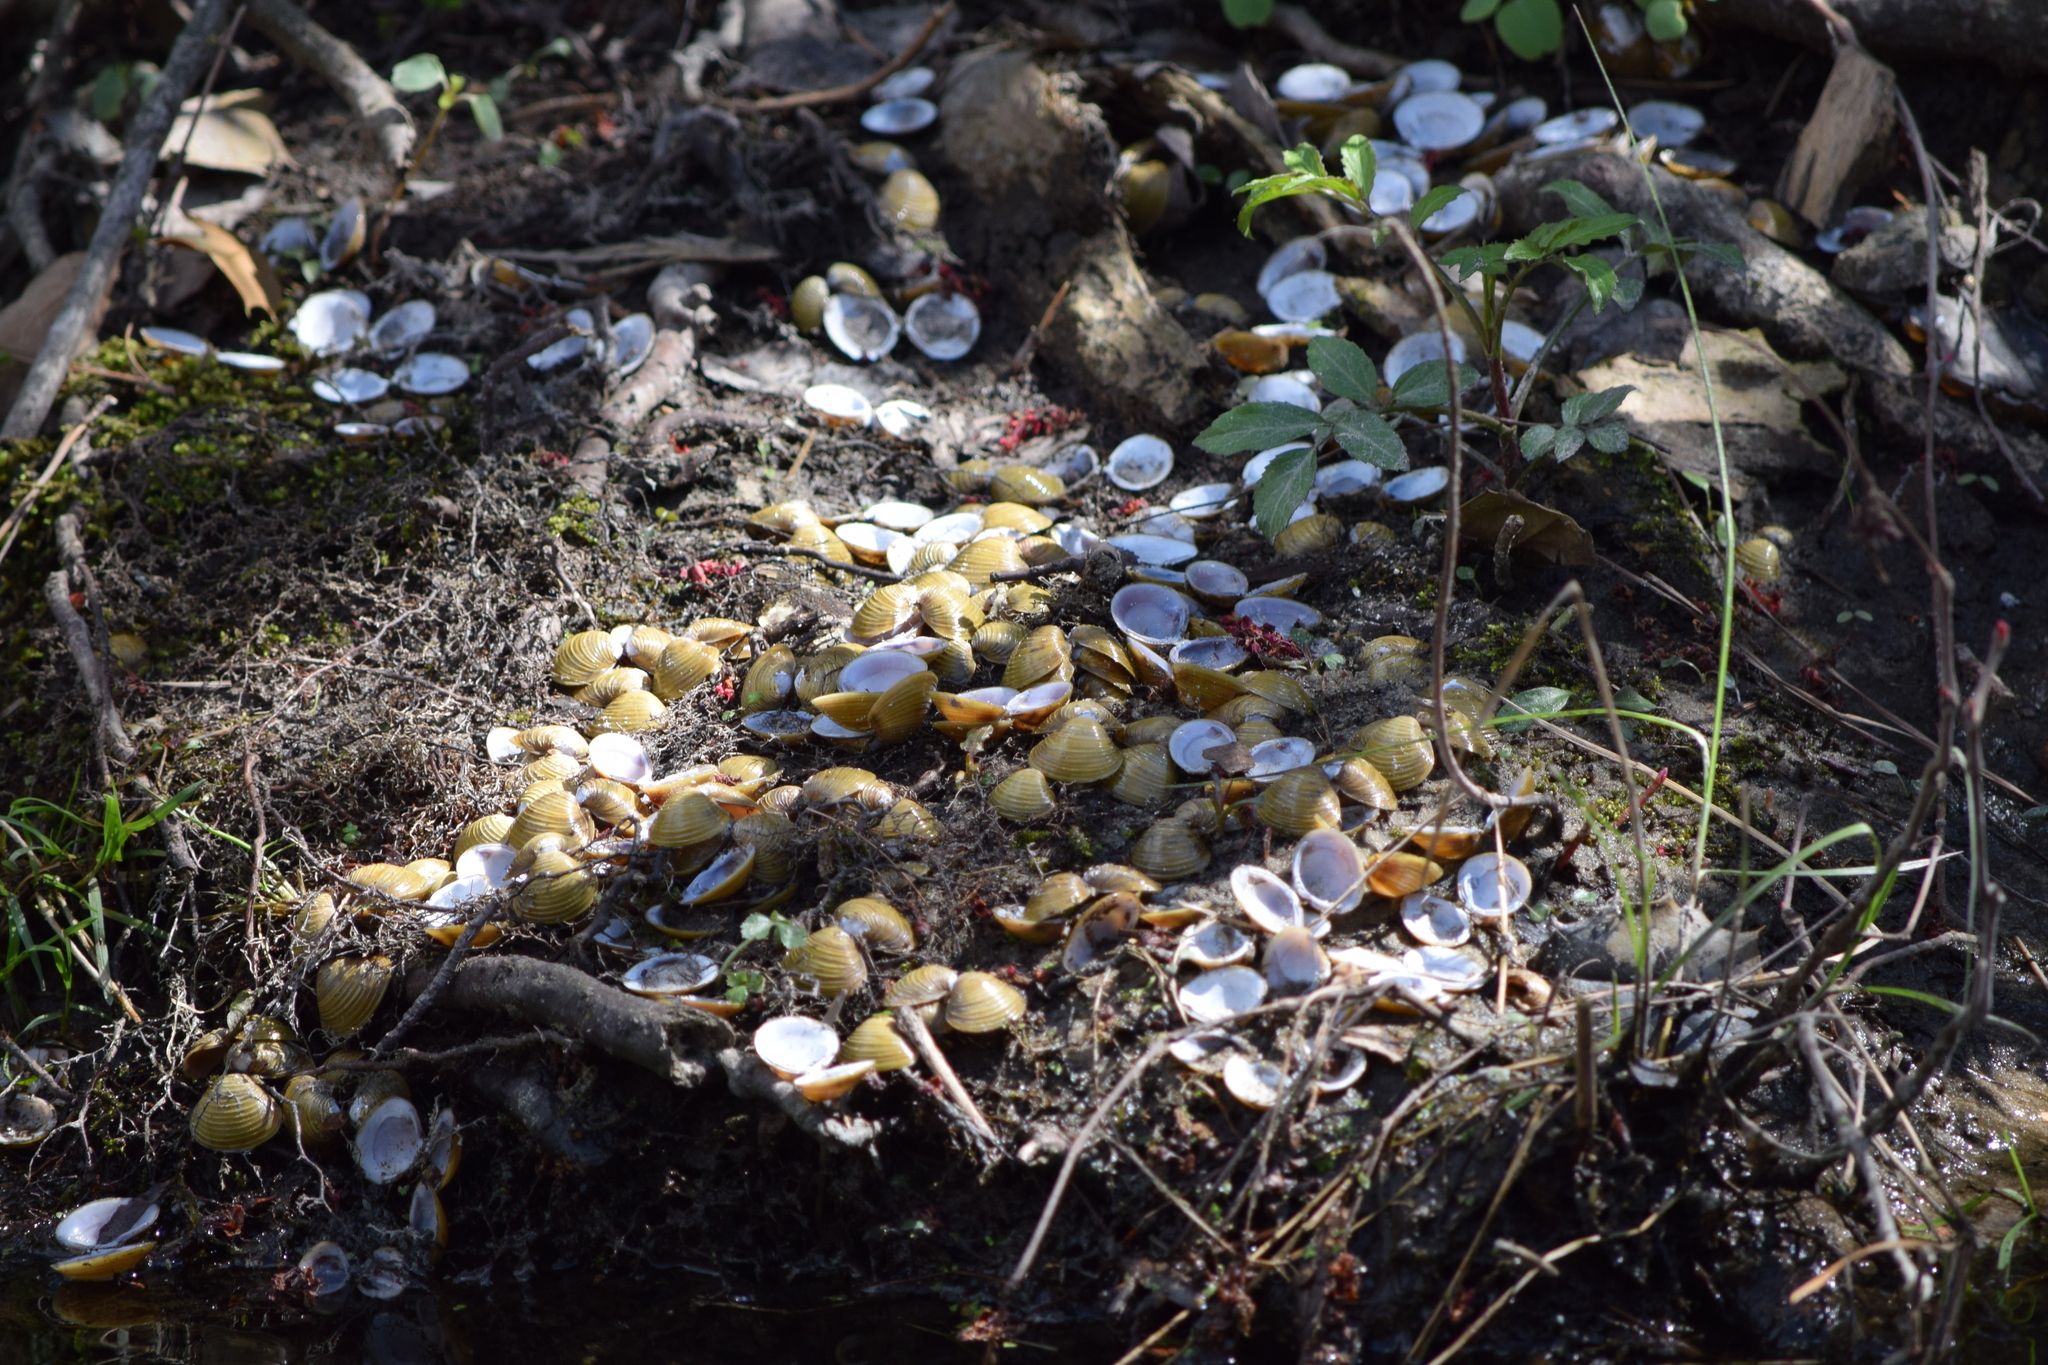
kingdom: Animalia
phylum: Mollusca
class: Bivalvia
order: Venerida
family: Cyrenidae
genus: Corbicula
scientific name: Corbicula fluminea
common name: Asian clam
